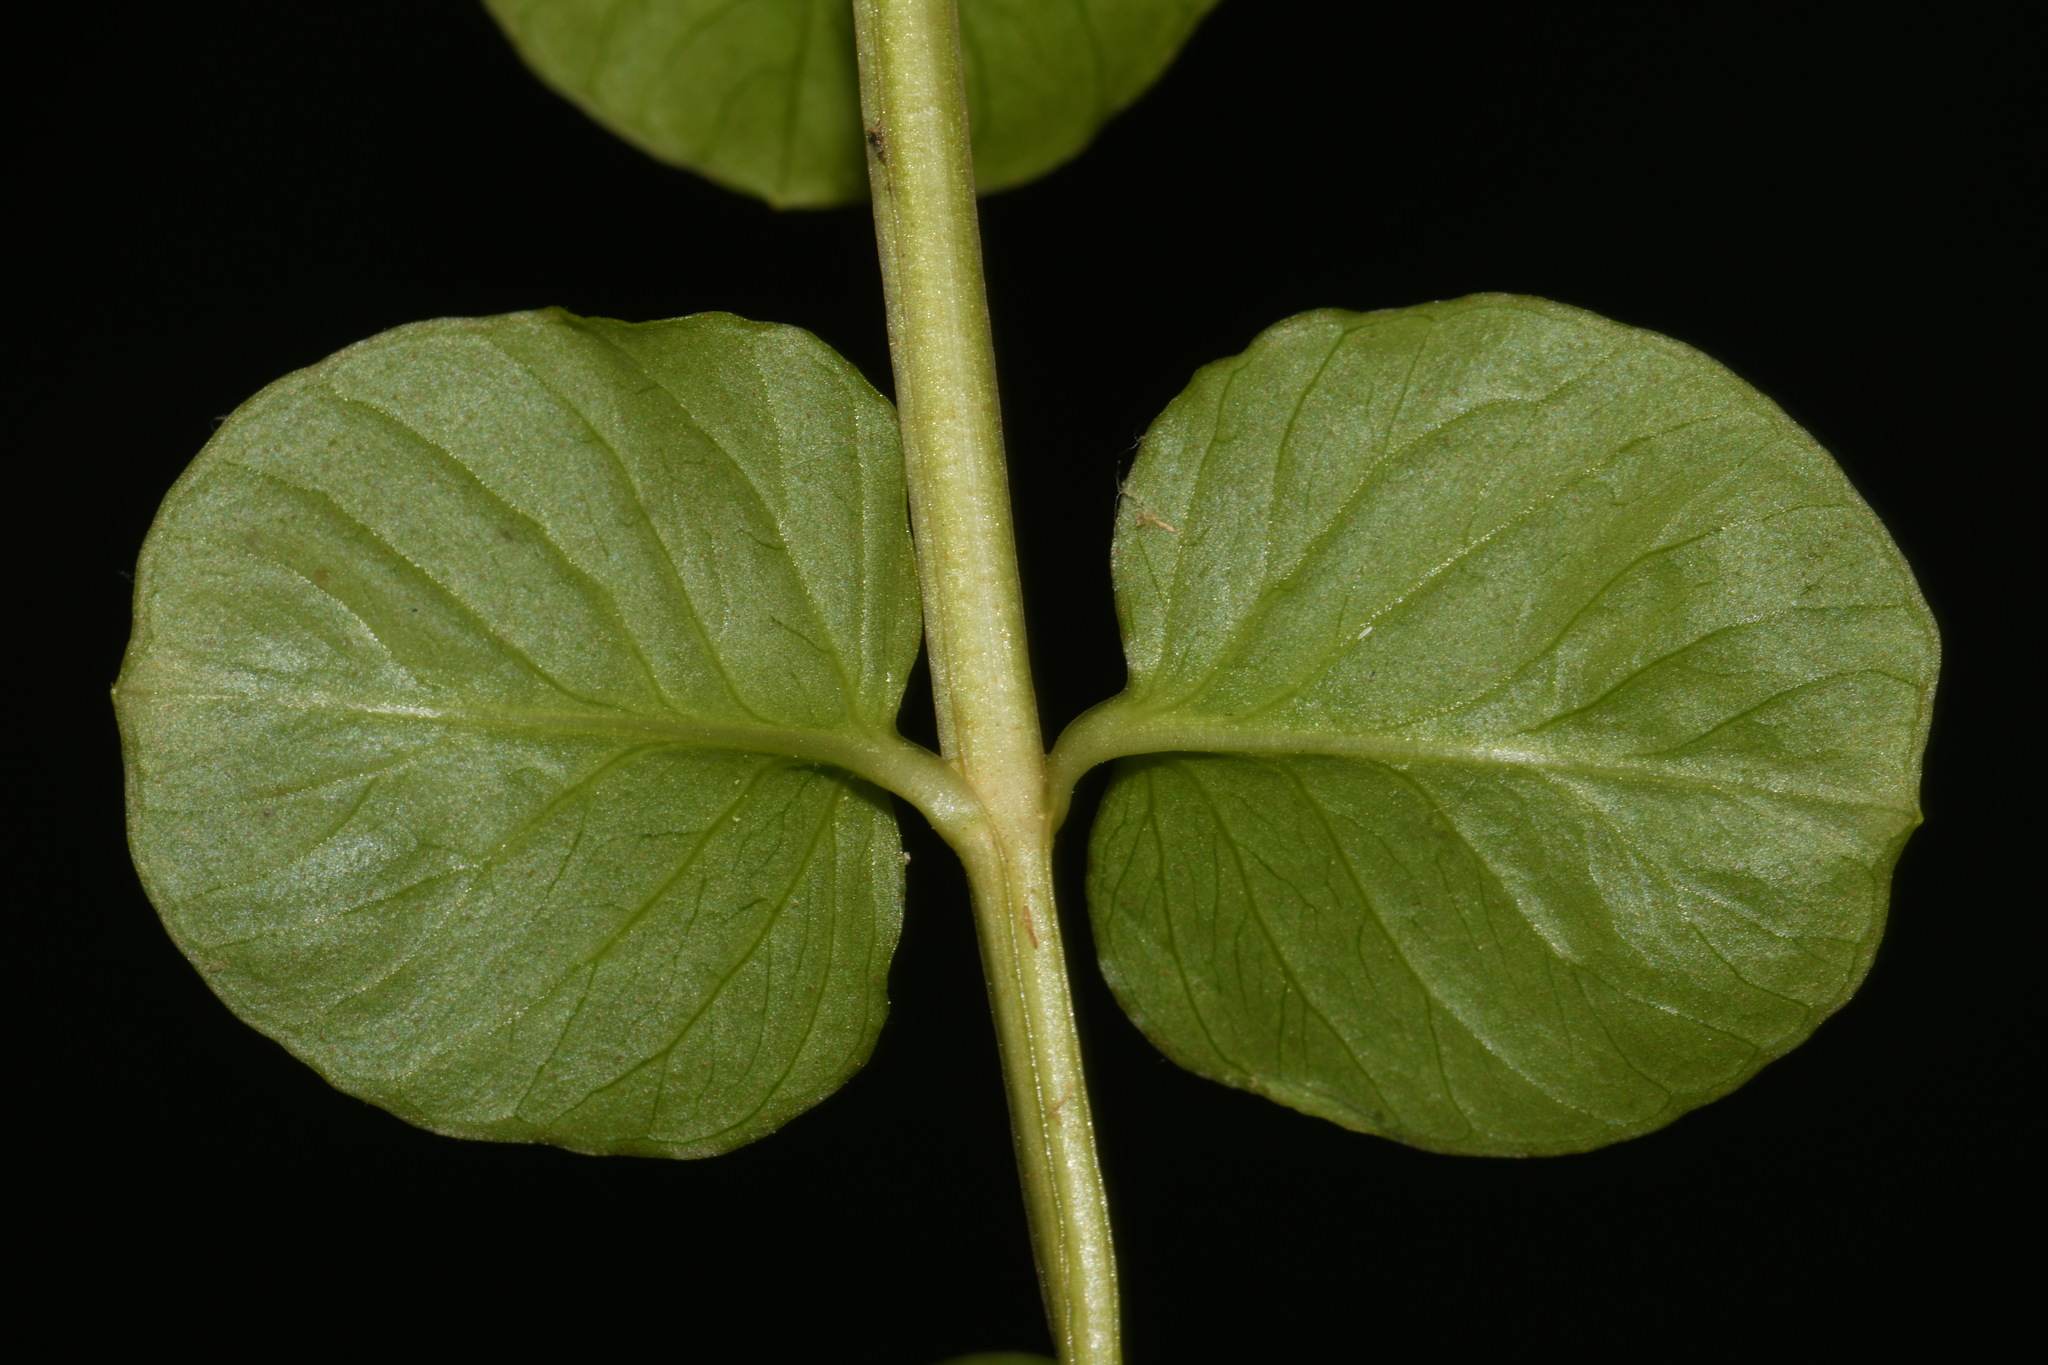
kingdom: Plantae
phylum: Tracheophyta
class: Magnoliopsida
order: Ericales
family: Primulaceae
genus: Lysimachia
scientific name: Lysimachia nummularia
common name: Moneywort
